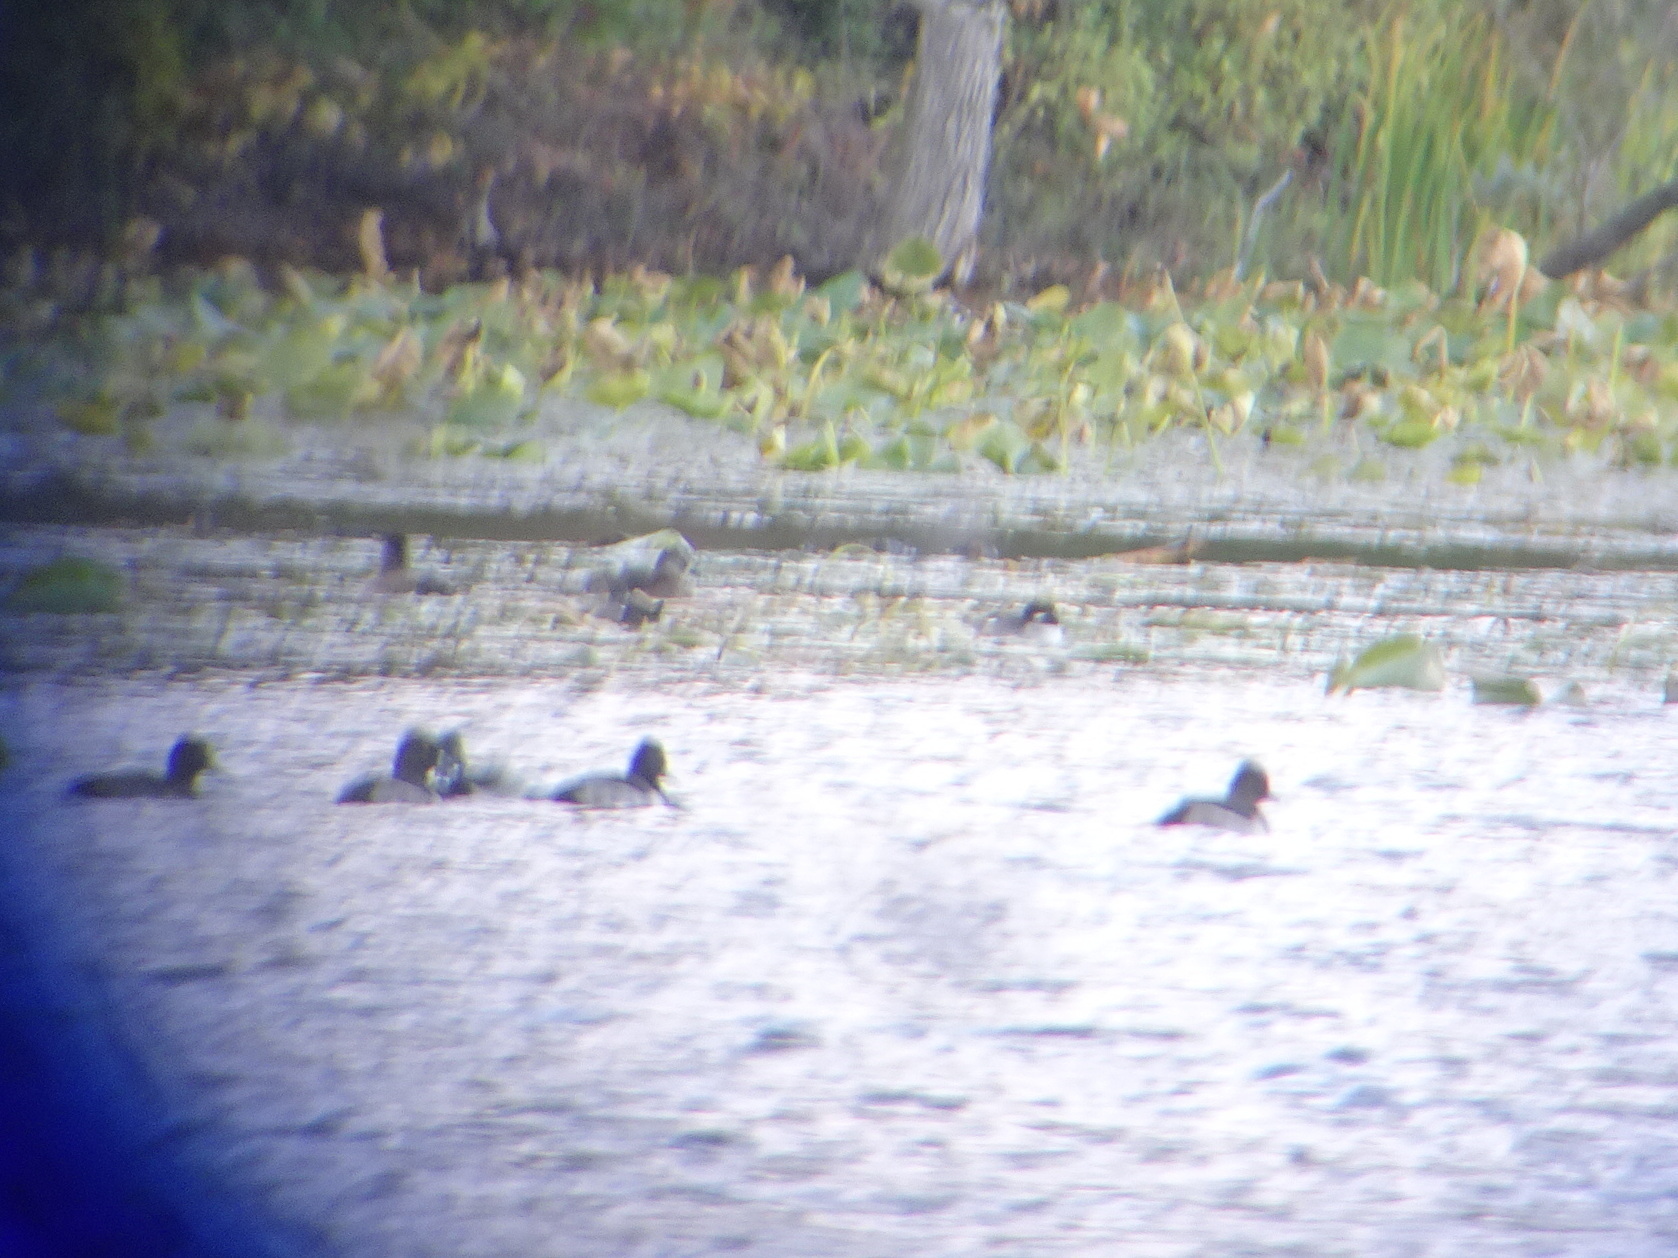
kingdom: Animalia
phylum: Chordata
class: Aves
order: Anseriformes
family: Anatidae
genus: Bucephala
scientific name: Bucephala albeola
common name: Bufflehead
